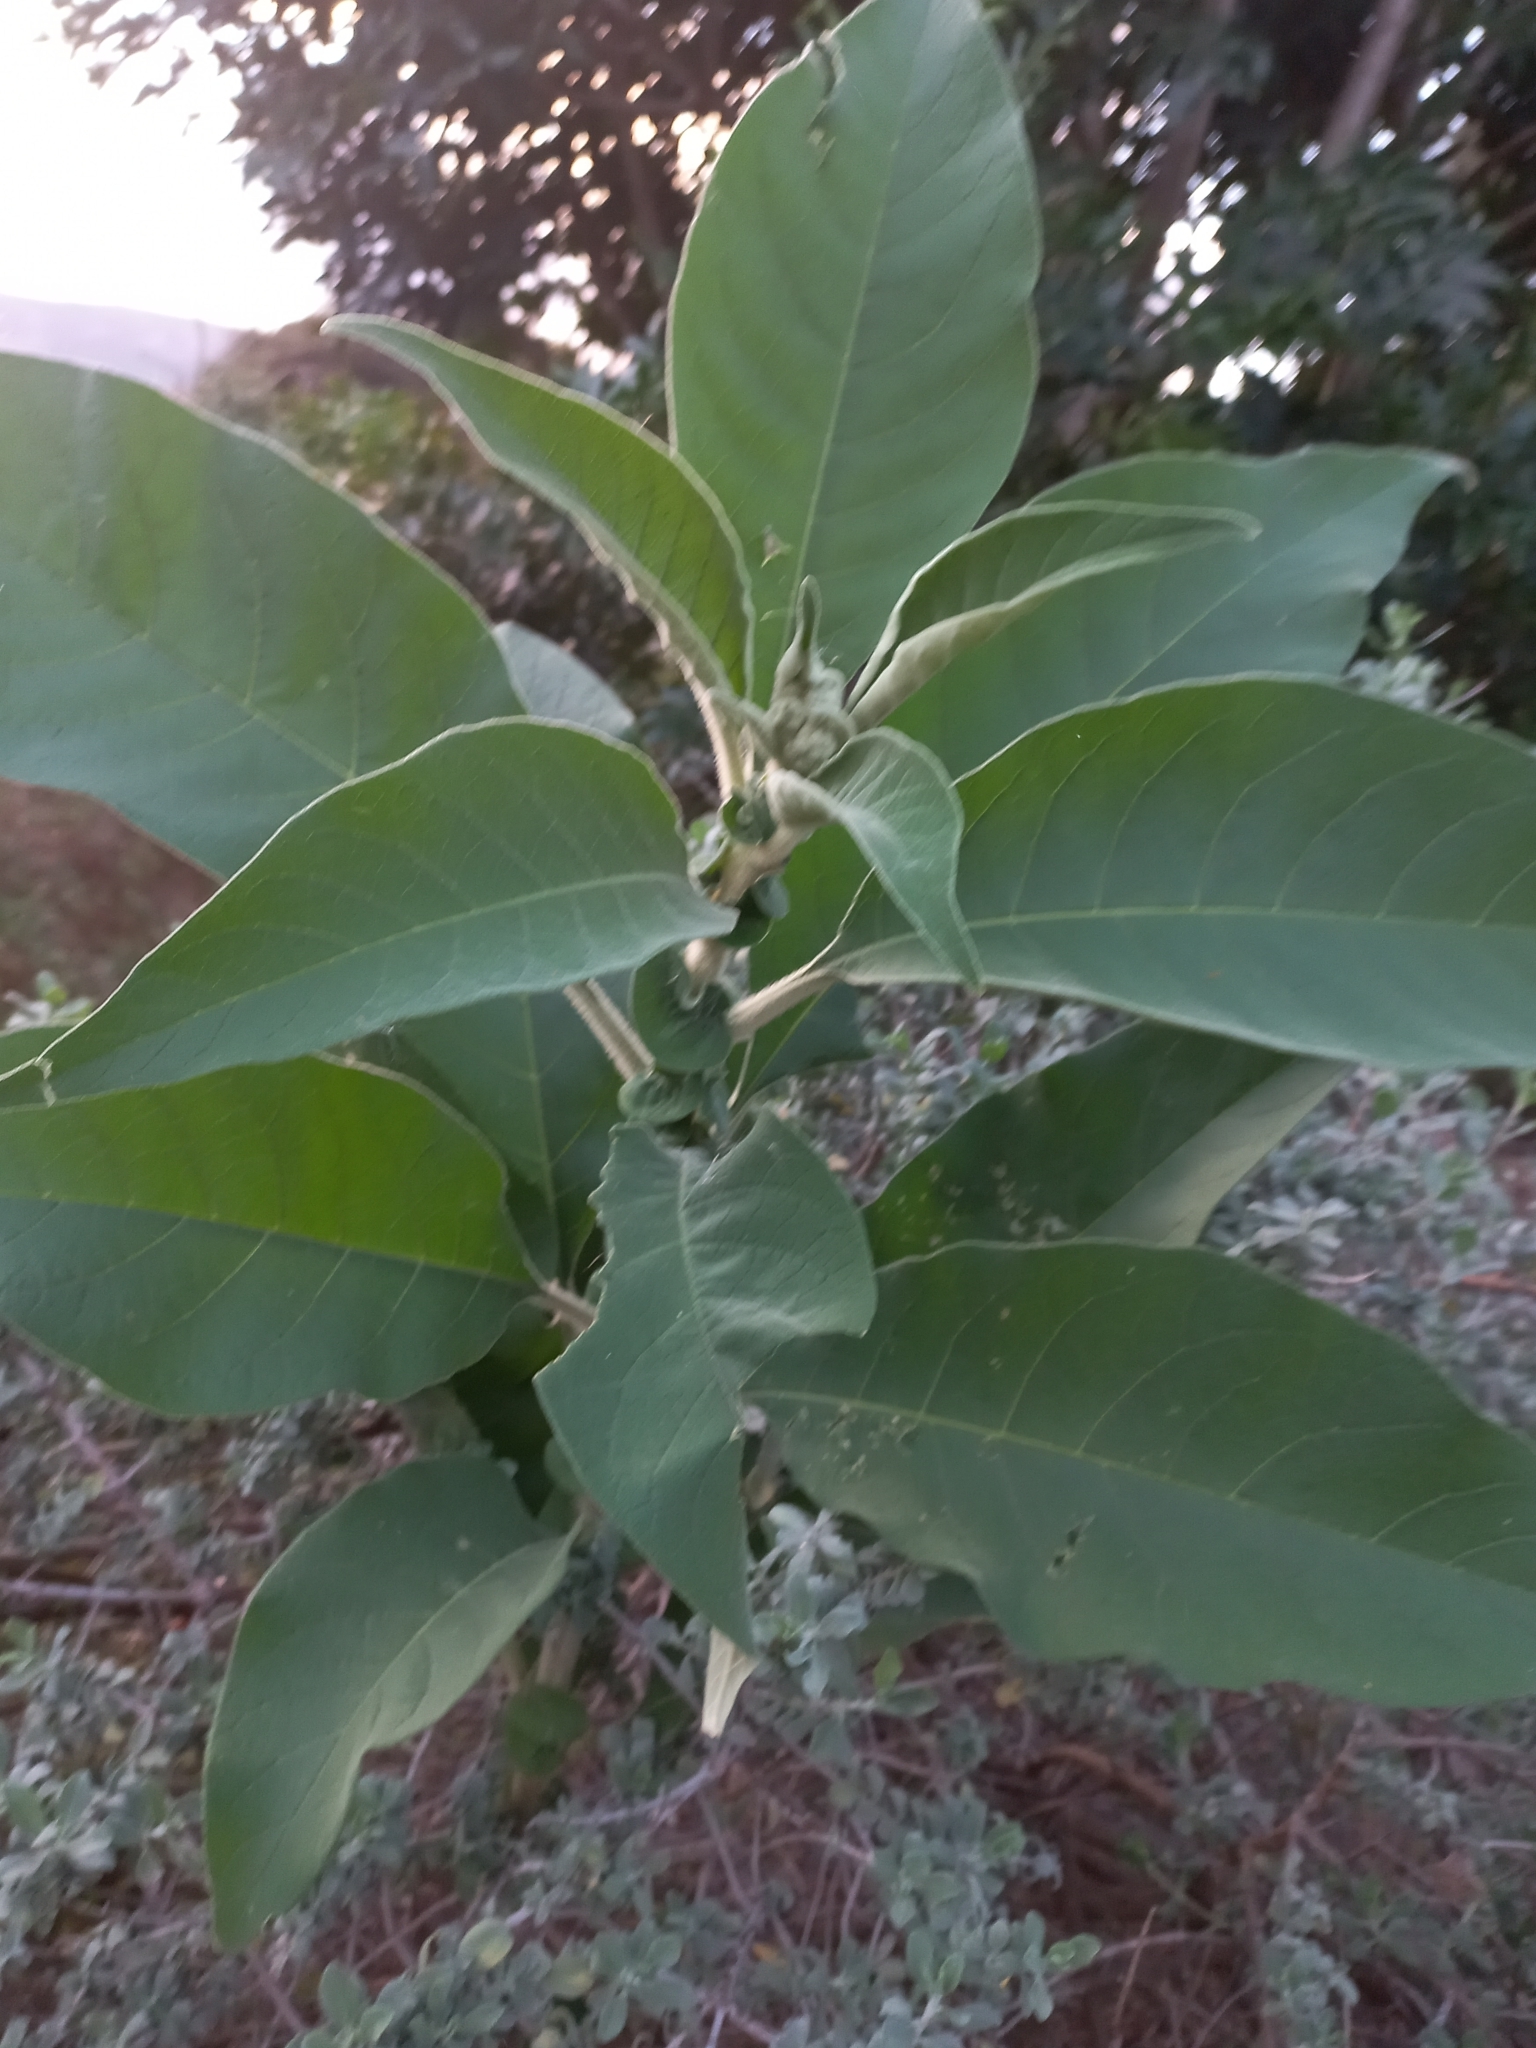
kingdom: Plantae
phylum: Tracheophyta
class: Magnoliopsida
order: Solanales
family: Solanaceae
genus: Solanum
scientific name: Solanum mauritianum
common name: Earleaf nightshade
